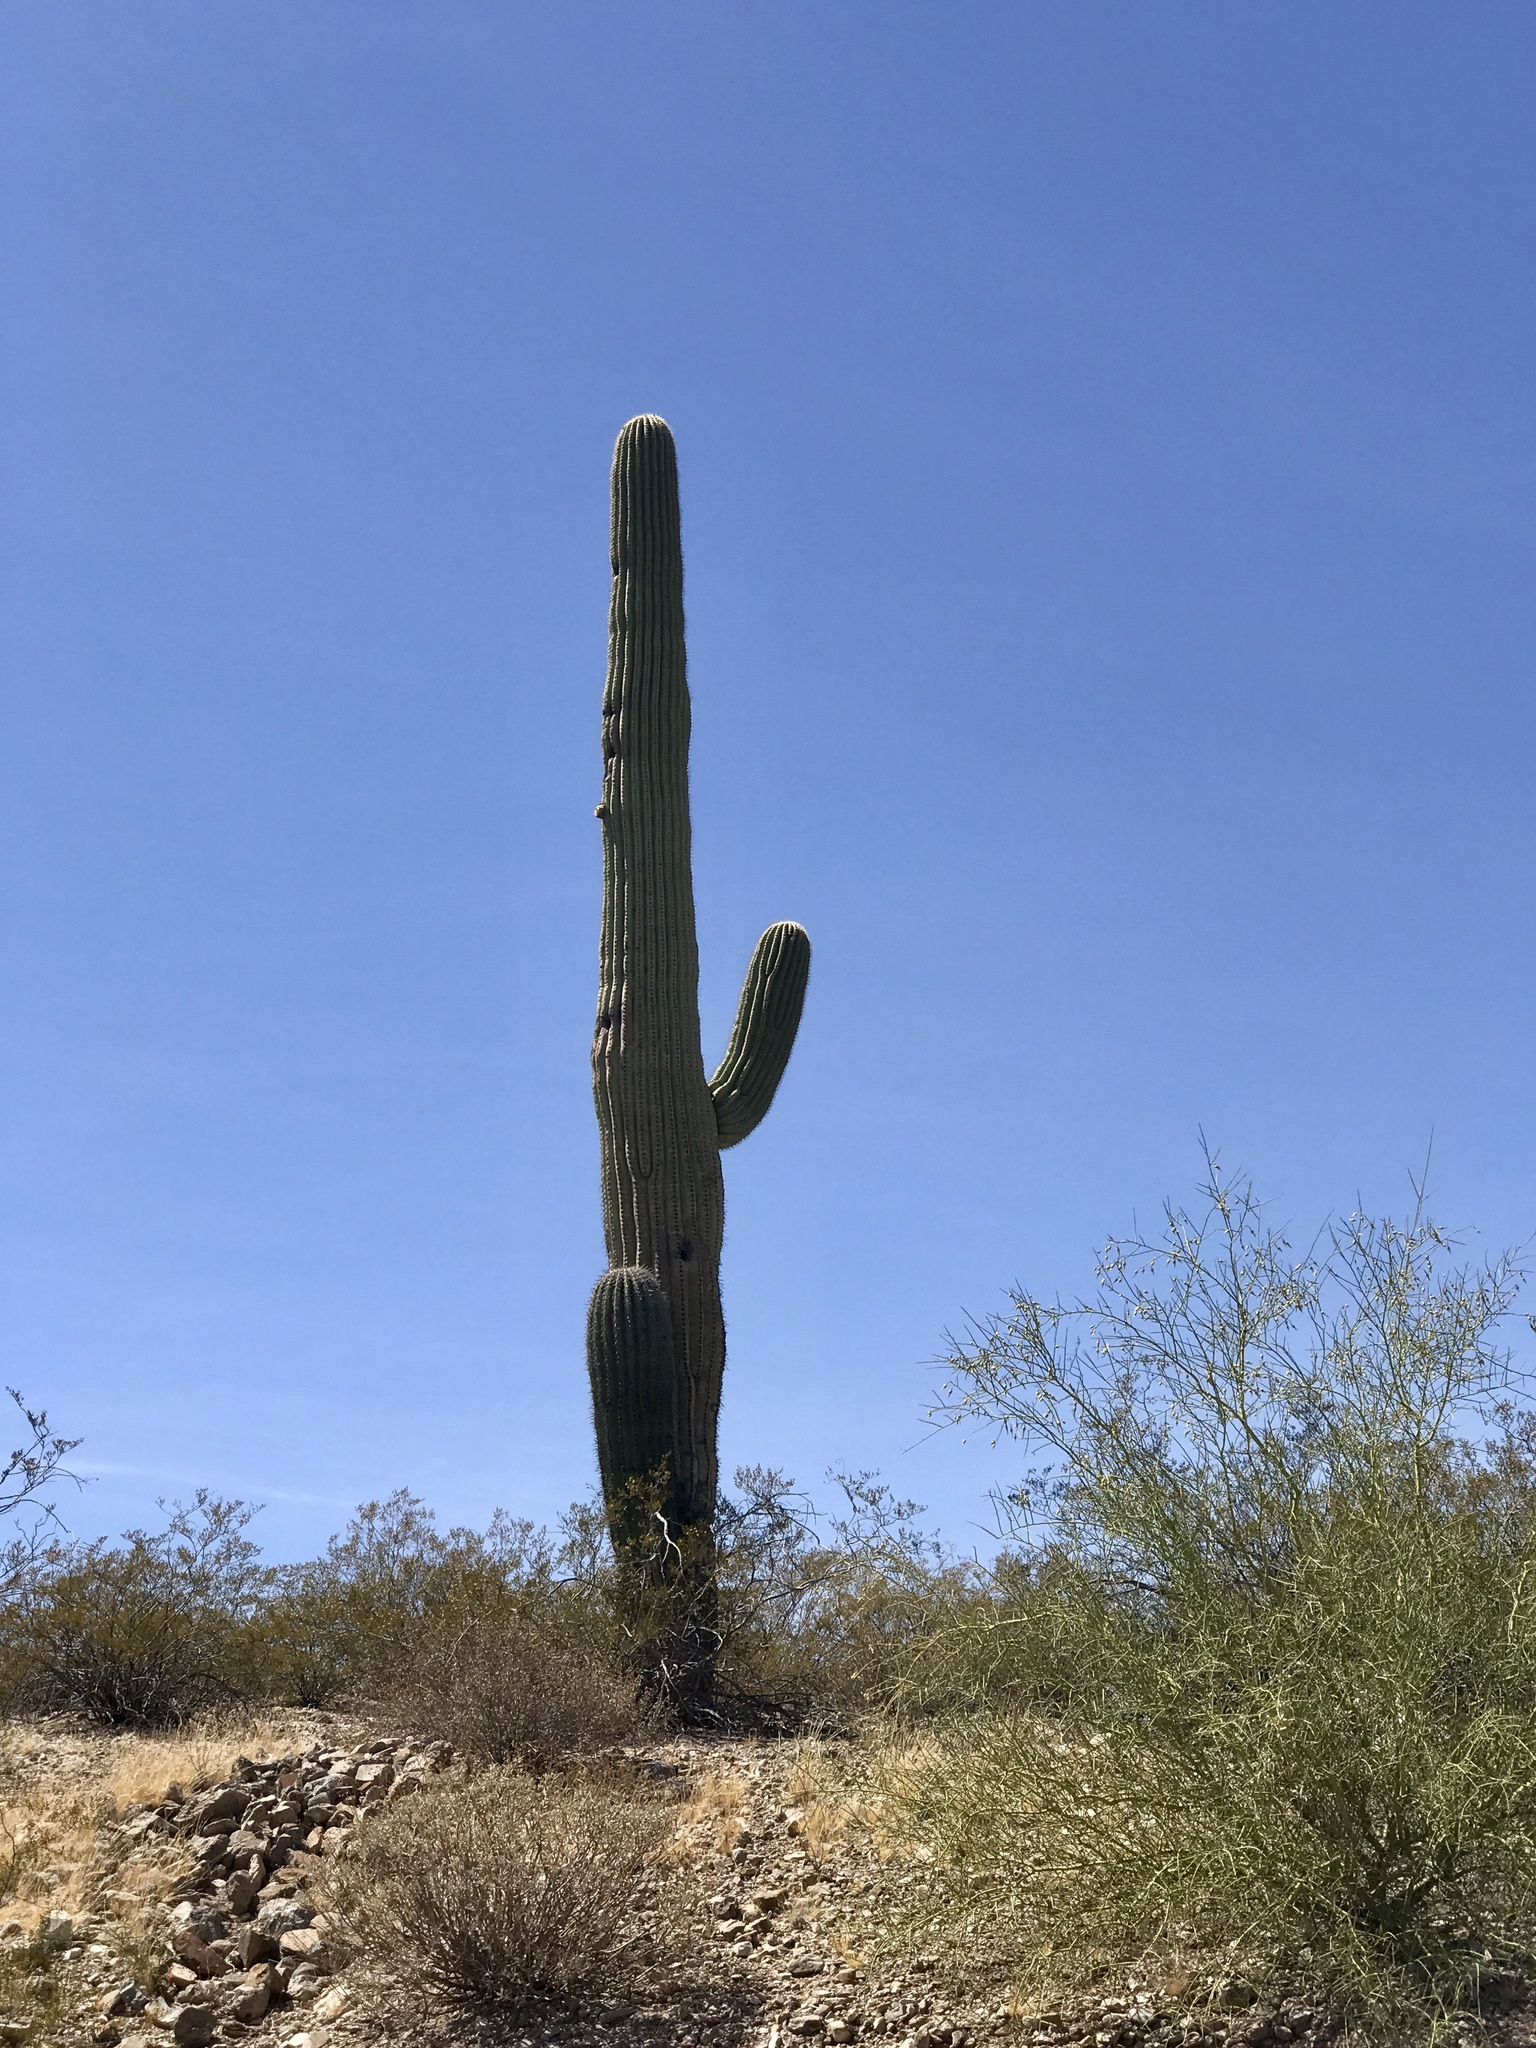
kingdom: Plantae
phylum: Tracheophyta
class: Magnoliopsida
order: Caryophyllales
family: Cactaceae
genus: Carnegiea
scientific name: Carnegiea gigantea
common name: Saguaro
